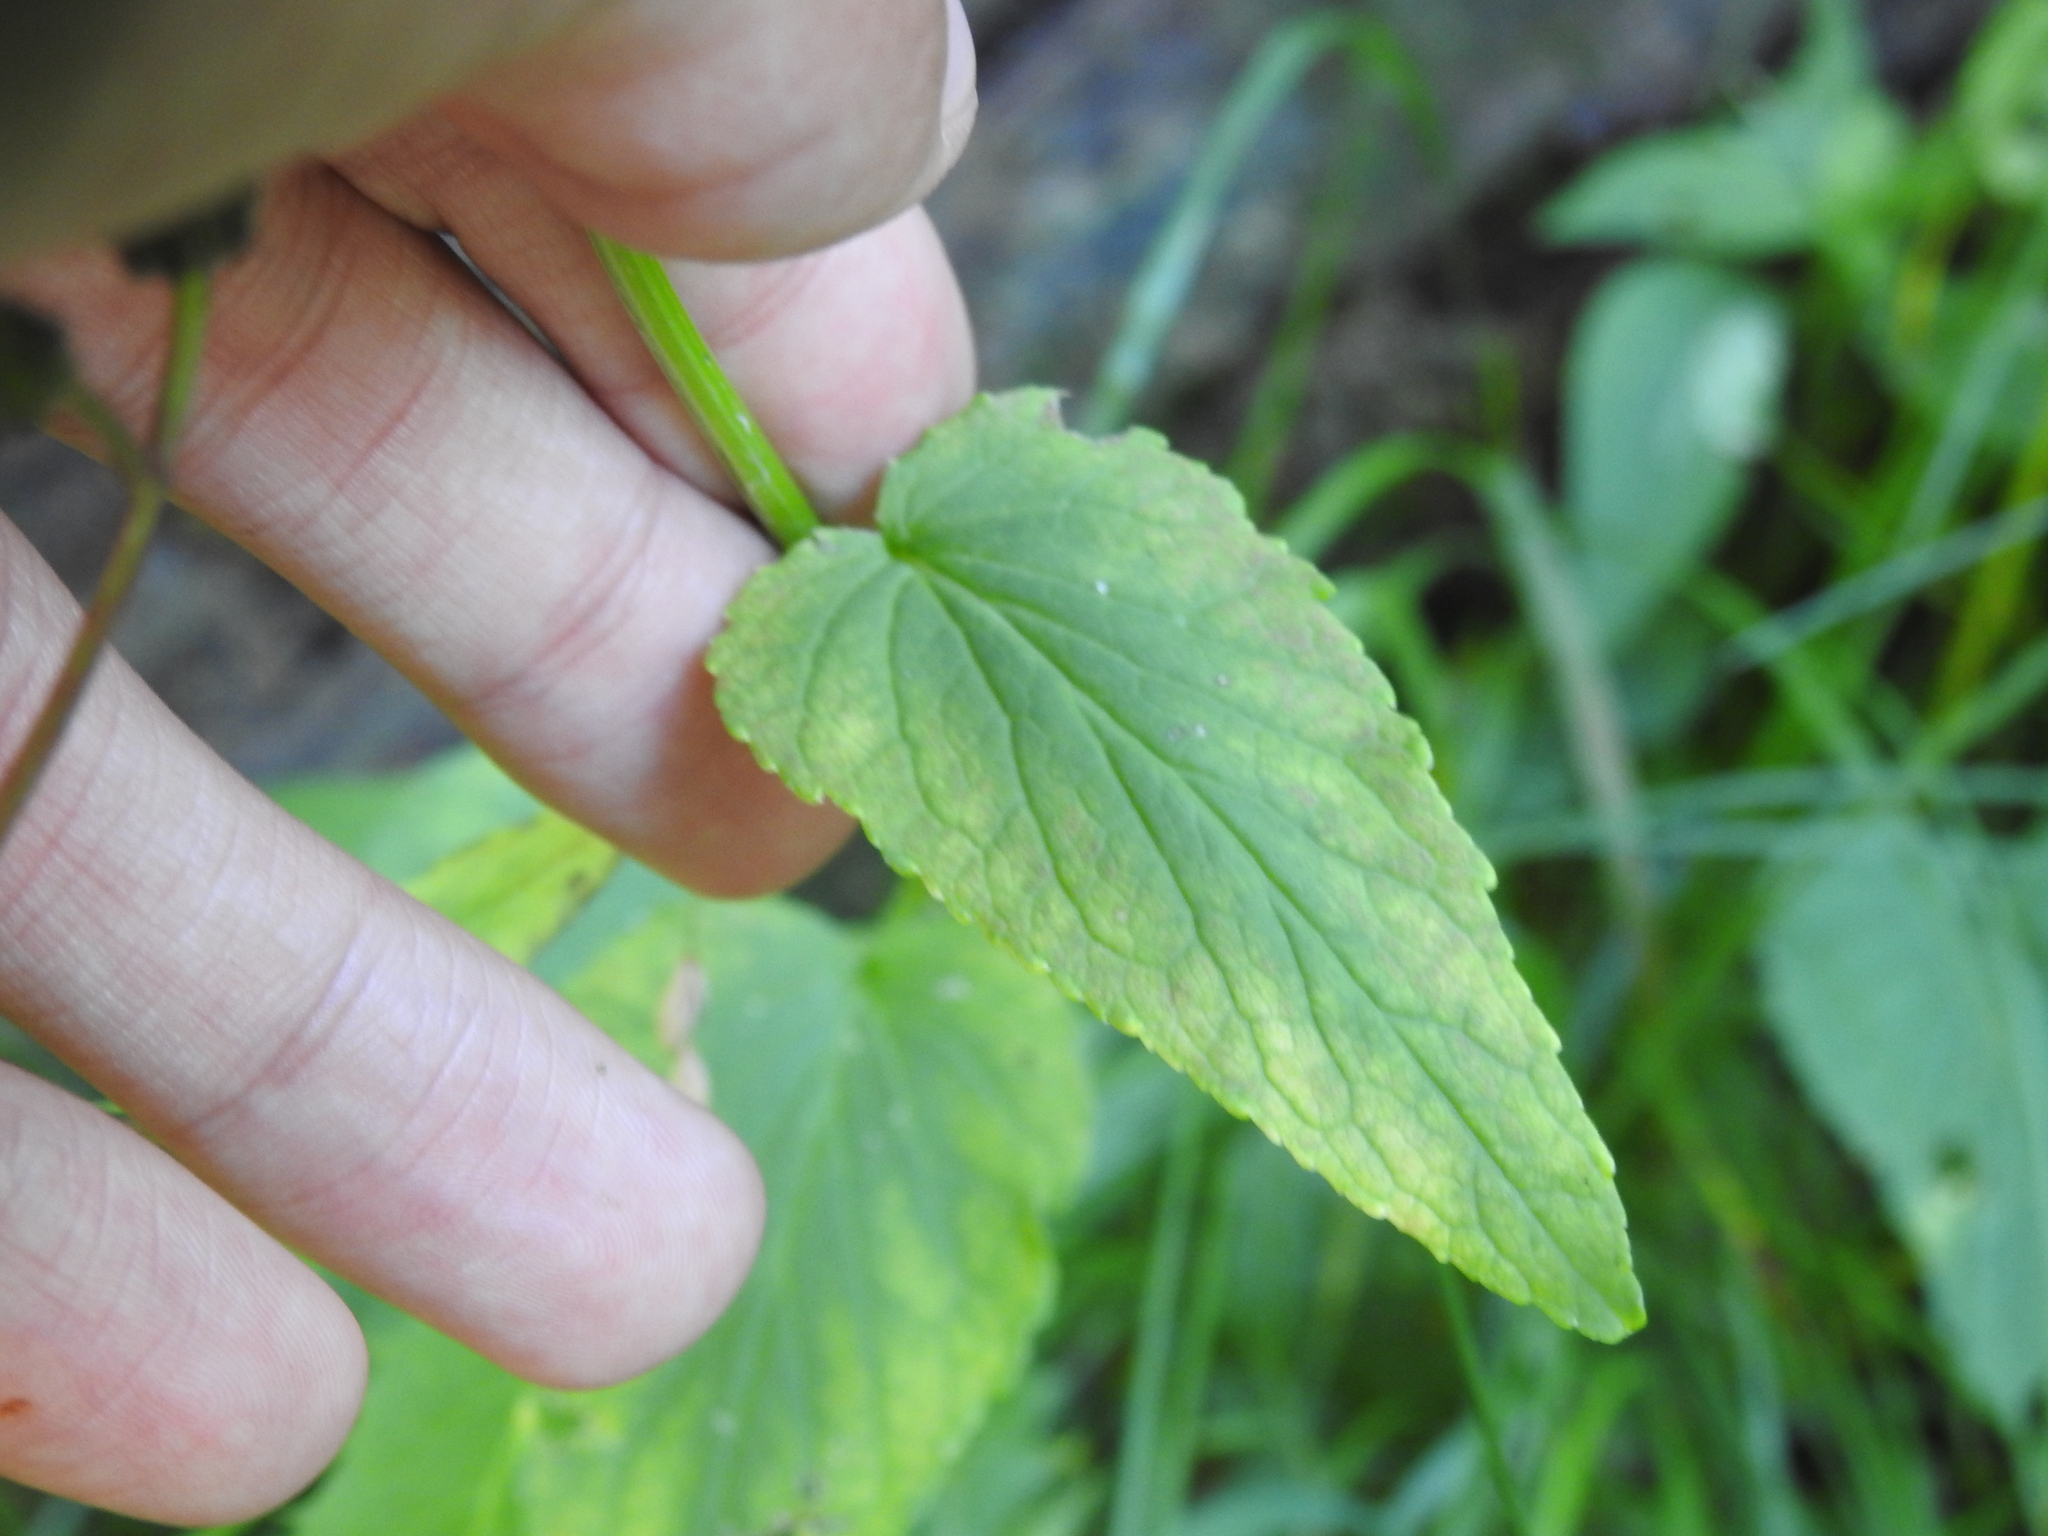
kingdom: Plantae
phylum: Tracheophyta
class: Magnoliopsida
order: Asterales
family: Campanulaceae
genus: Phyteuma
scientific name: Phyteuma spicatum
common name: Spiked rampion
